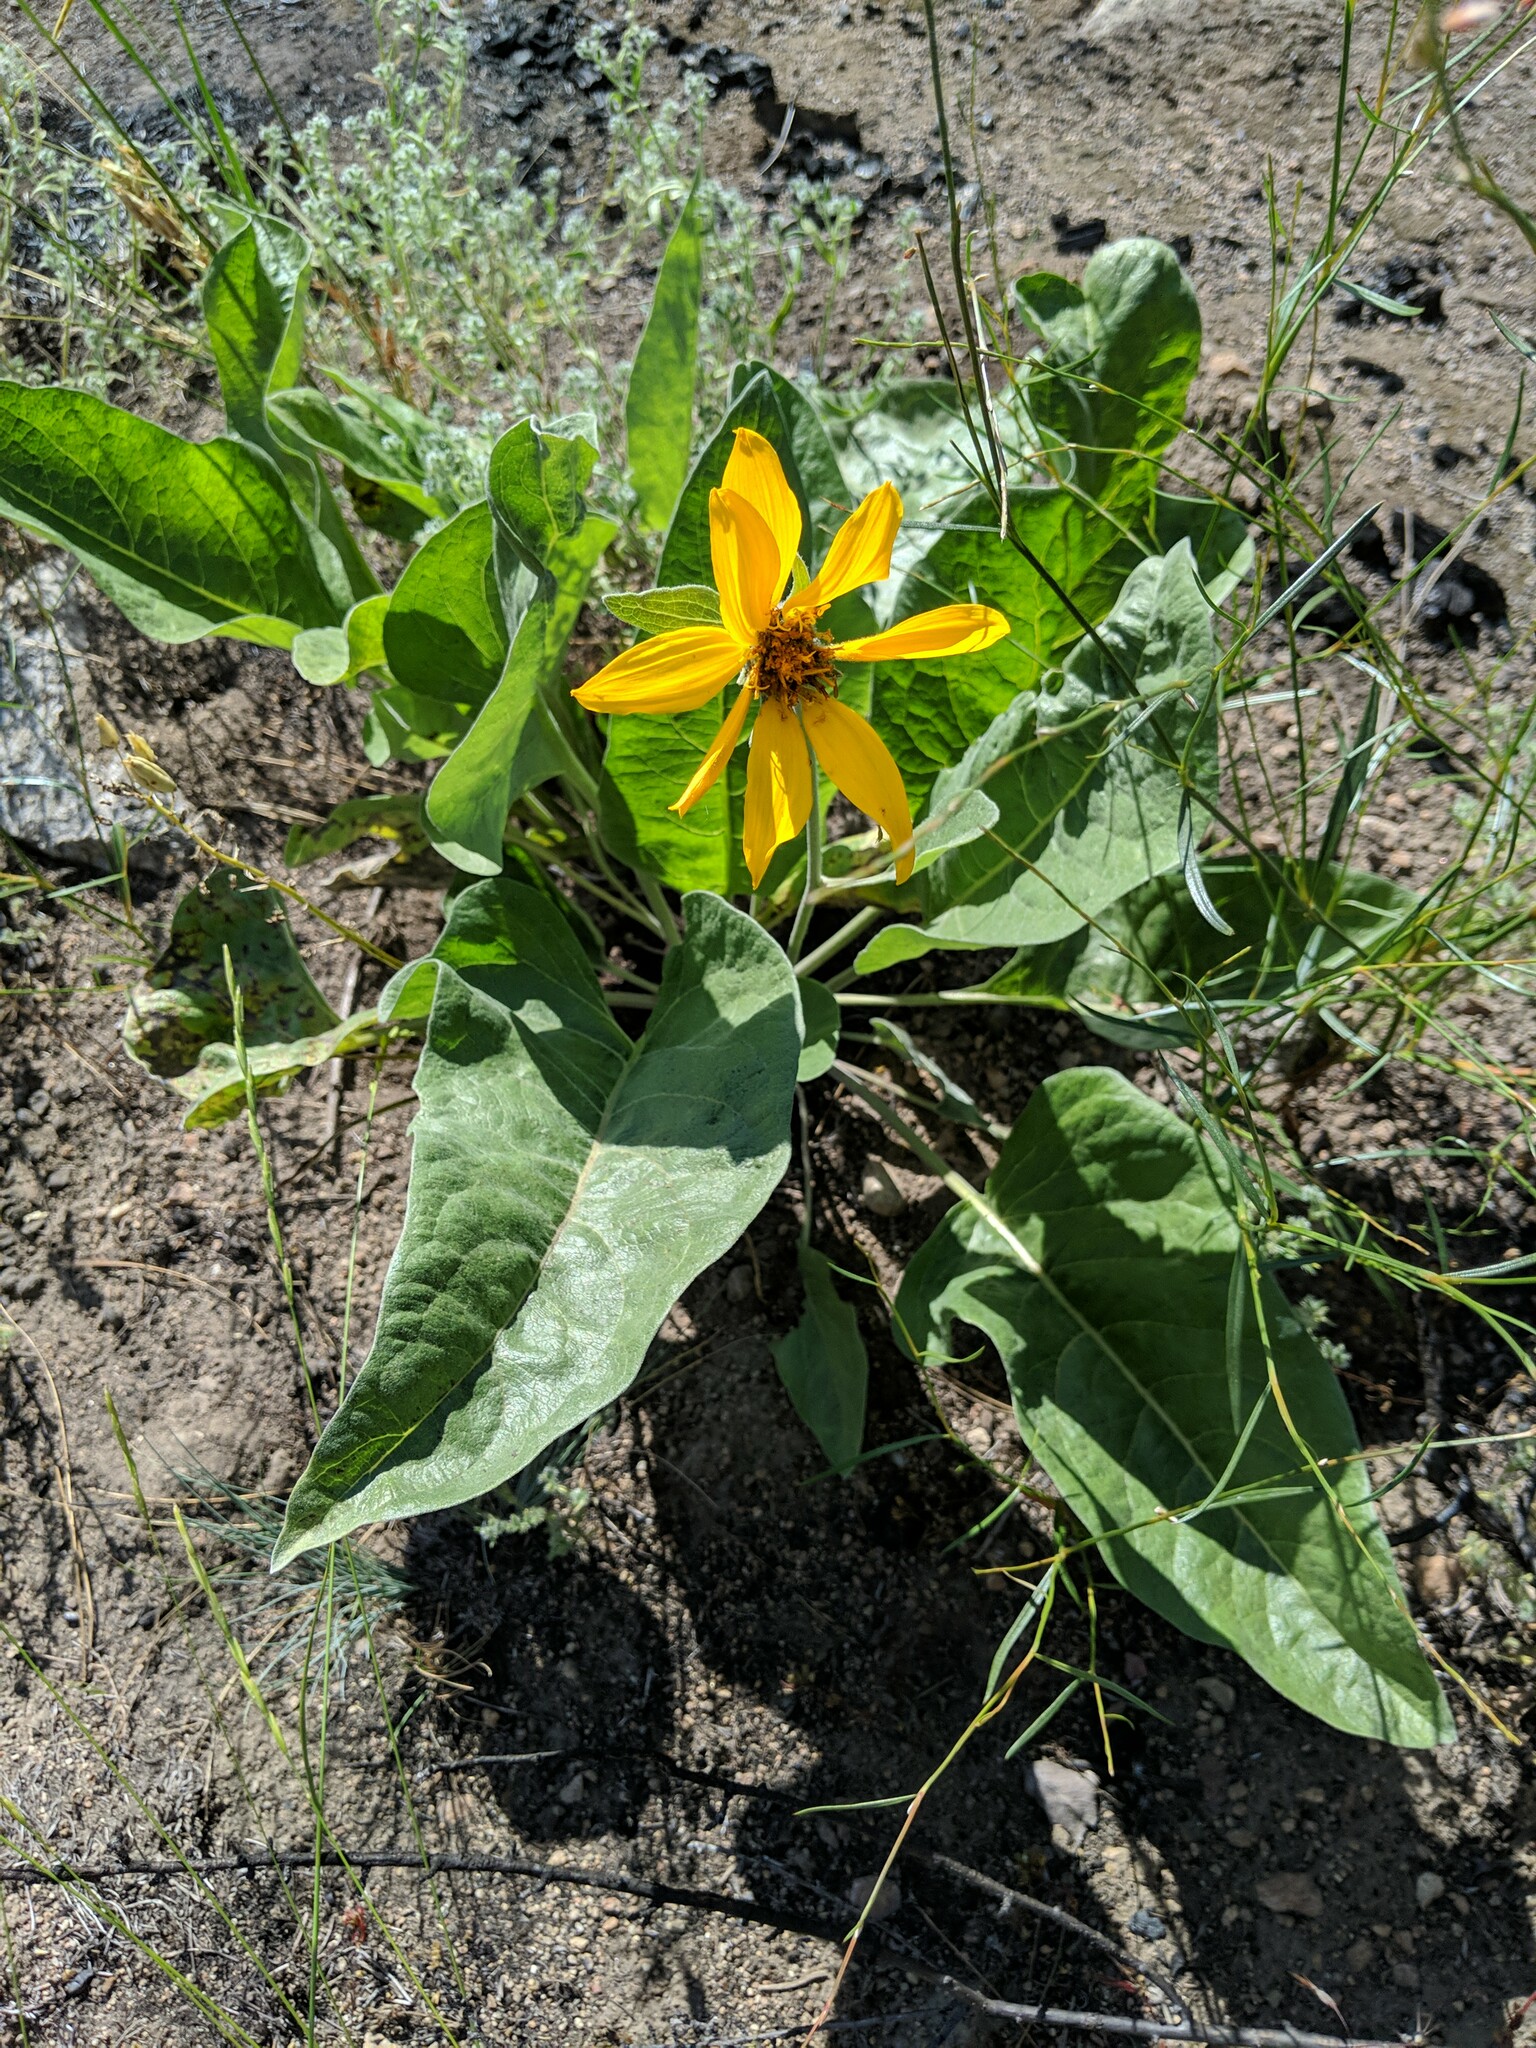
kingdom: Plantae
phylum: Tracheophyta
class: Magnoliopsida
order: Asterales
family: Asteraceae
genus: Wyethia
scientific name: Wyethia sagittata
